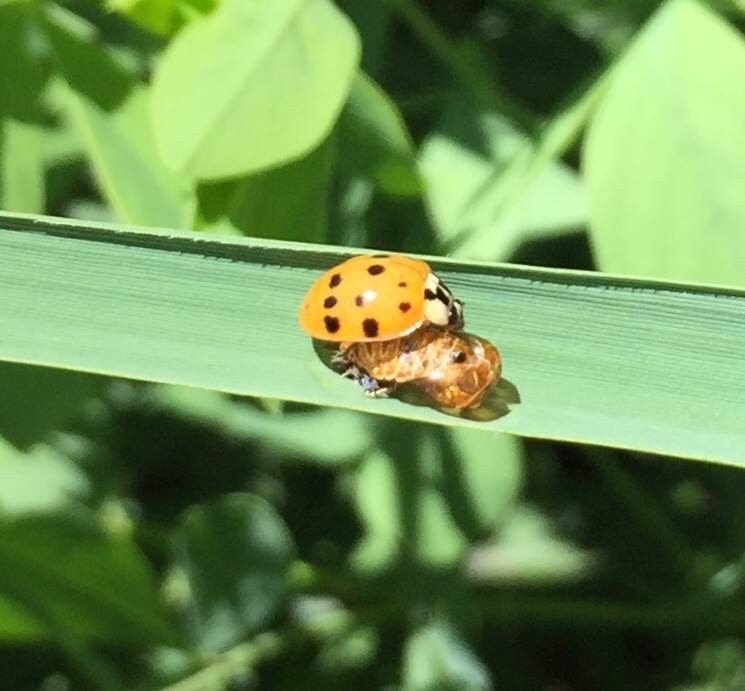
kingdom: Animalia
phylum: Arthropoda
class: Insecta
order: Coleoptera
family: Coccinellidae
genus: Harmonia
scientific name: Harmonia axyridis
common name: Harlequin ladybird
